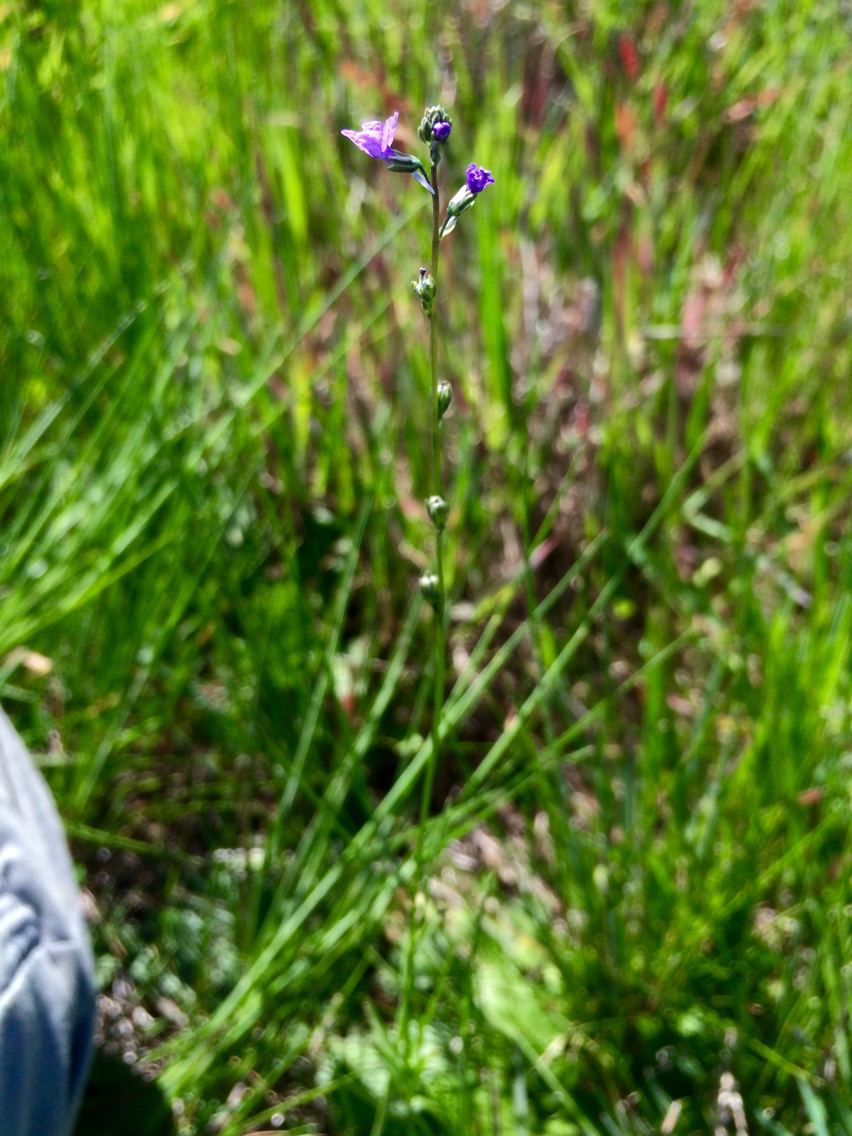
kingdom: Plantae
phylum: Tracheophyta
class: Magnoliopsida
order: Lamiales
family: Plantaginaceae
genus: Nuttallanthus
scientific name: Nuttallanthus texanus
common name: Texas toadflax
